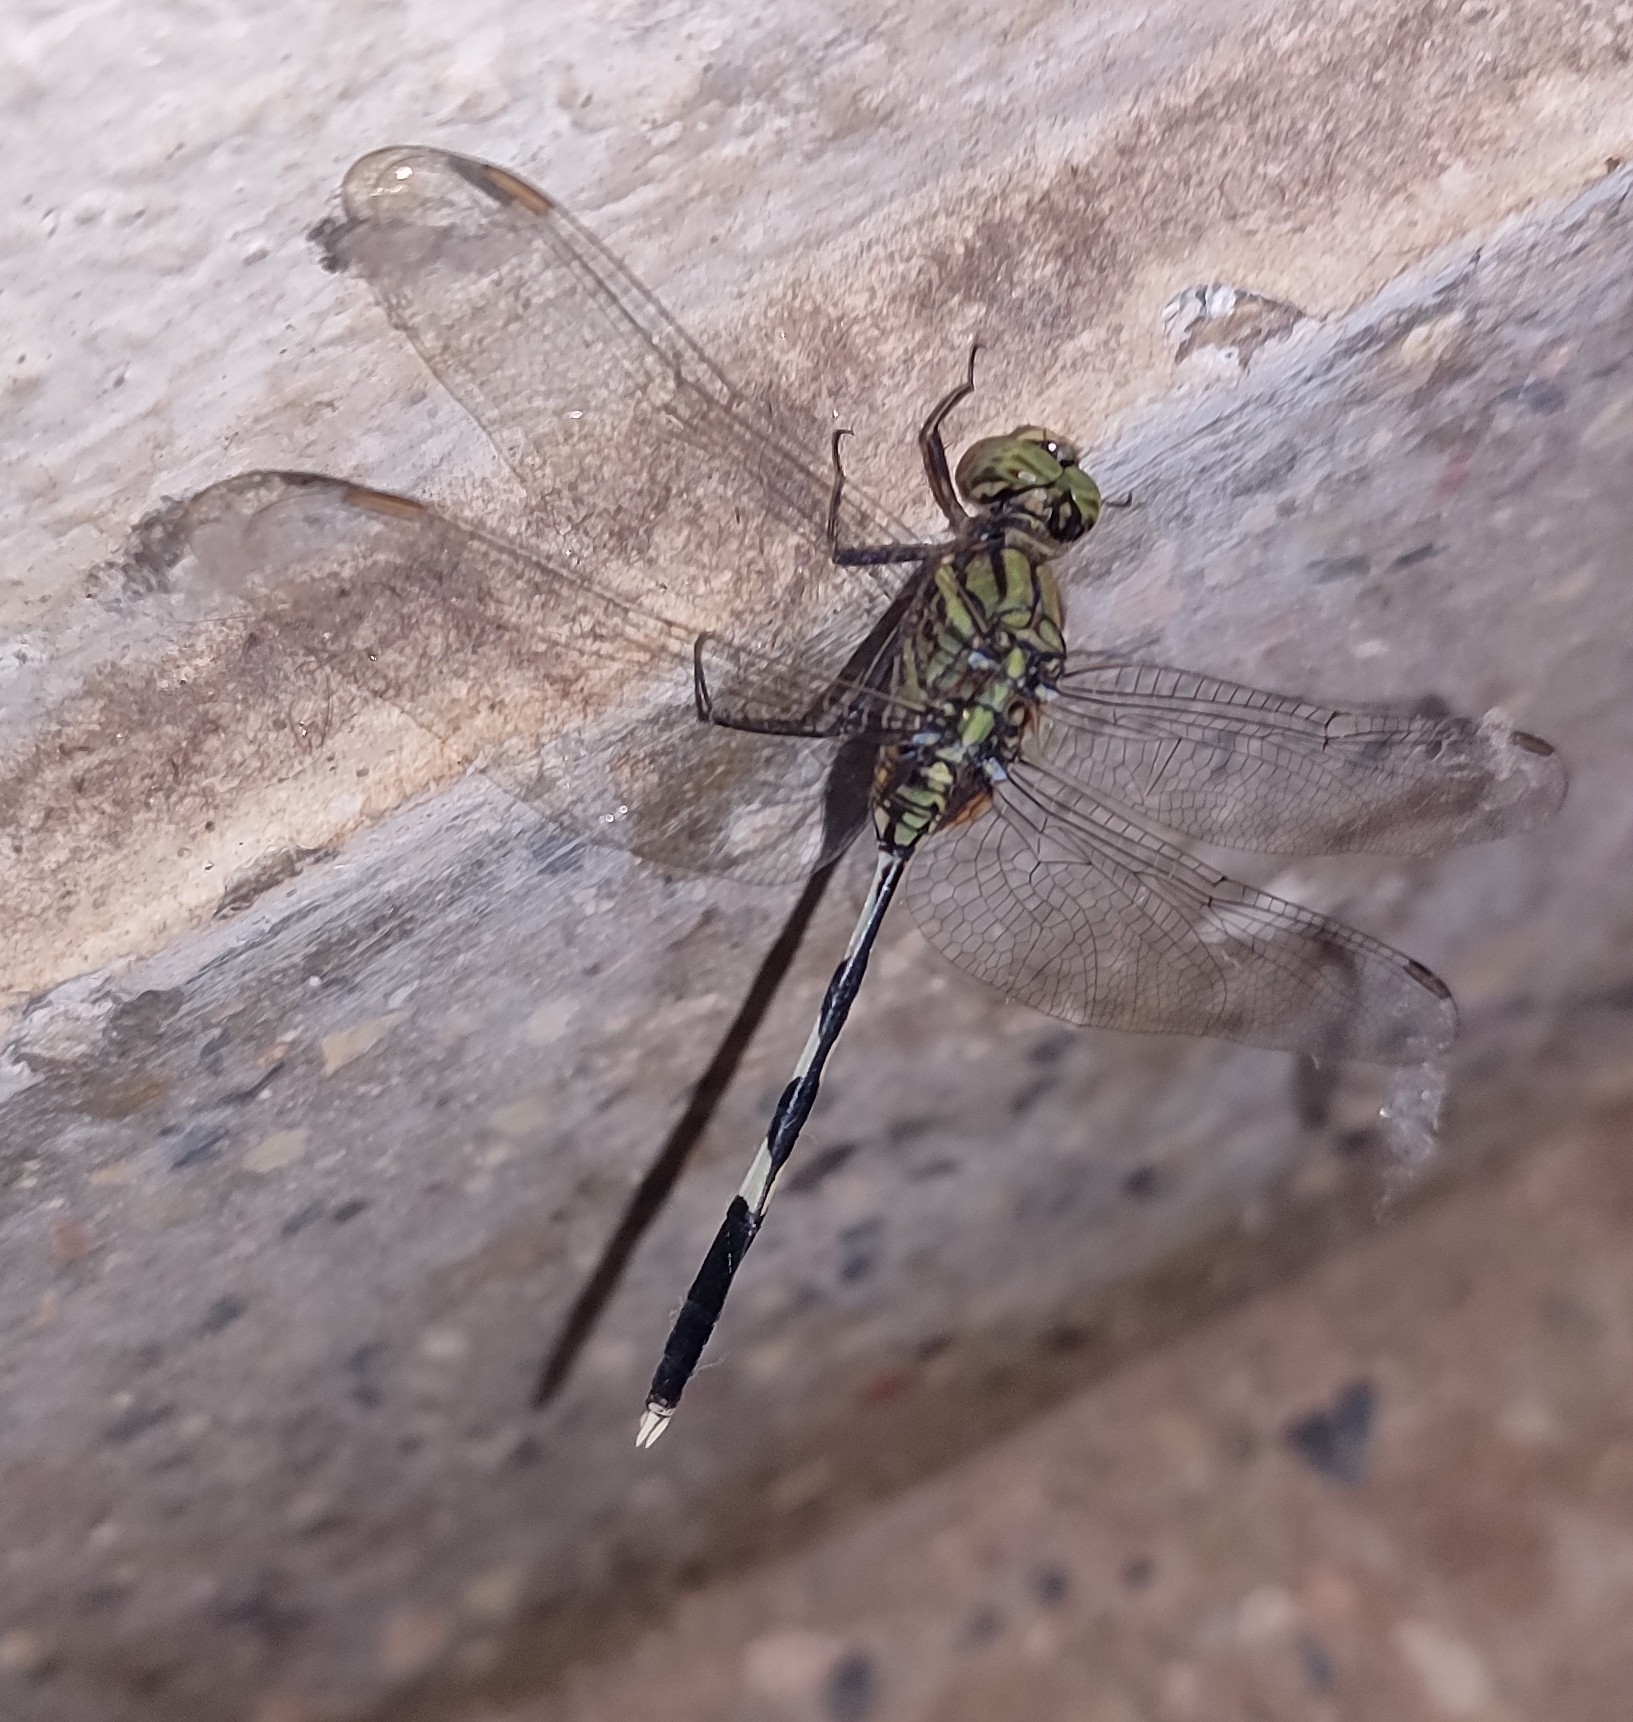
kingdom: Animalia
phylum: Arthropoda
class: Insecta
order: Odonata
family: Libellulidae
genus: Orthetrum
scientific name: Orthetrum sabina
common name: Slender skimmer
